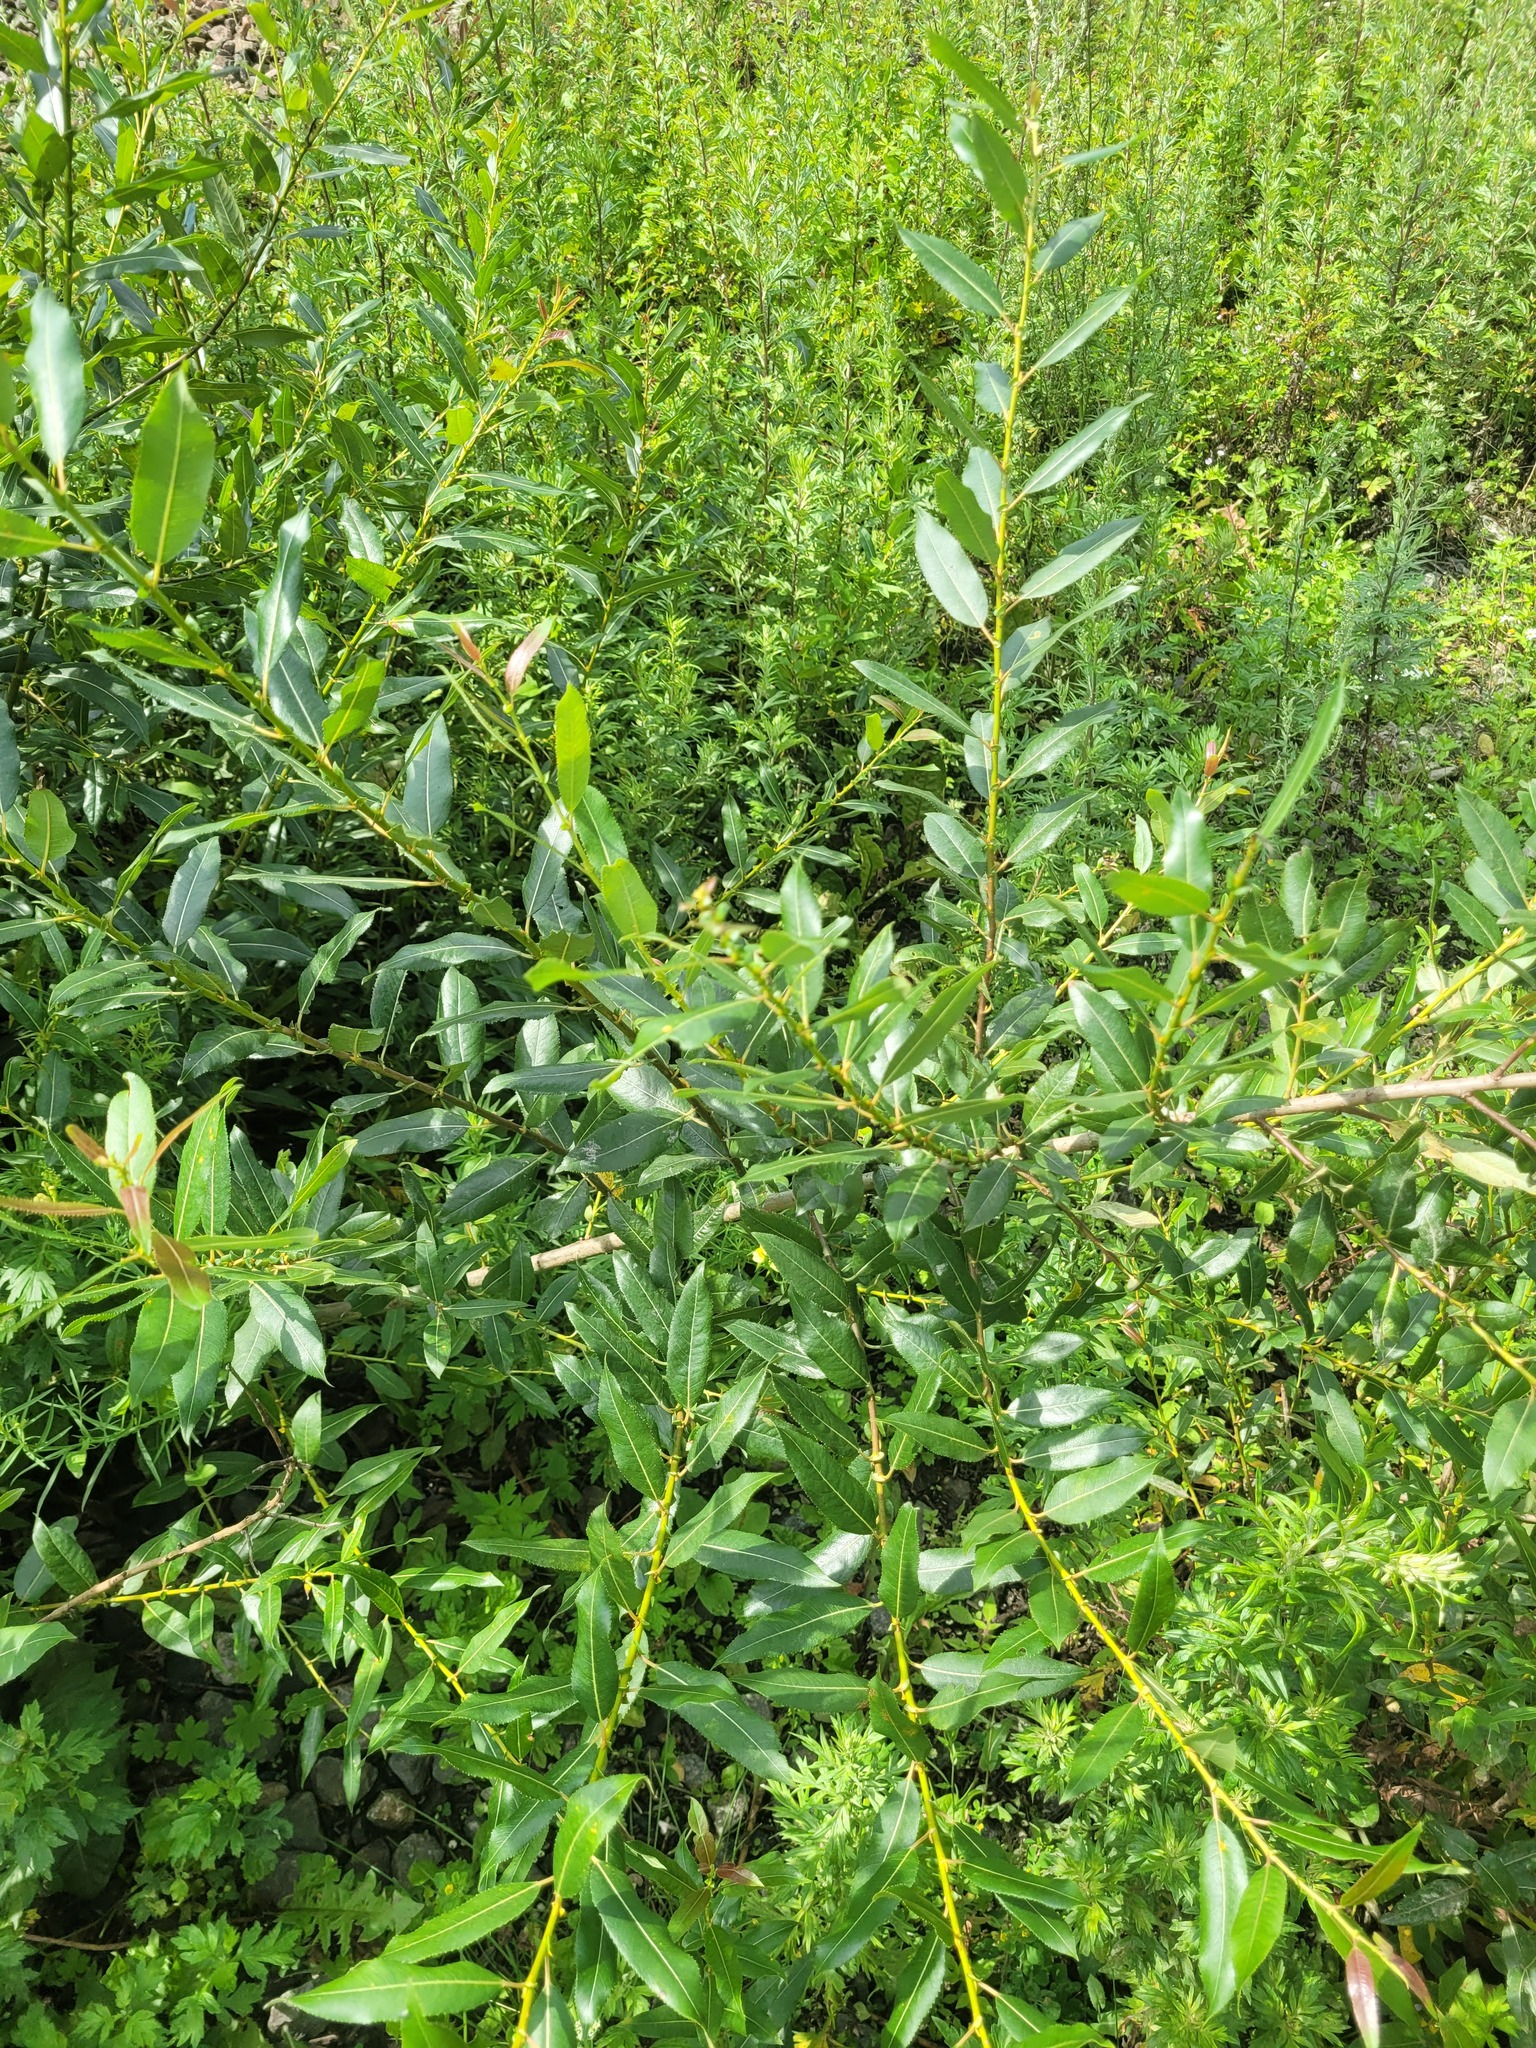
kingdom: Plantae
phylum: Tracheophyta
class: Magnoliopsida
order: Malpighiales
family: Salicaceae
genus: Salix
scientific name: Salix triandra
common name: Almond willow
